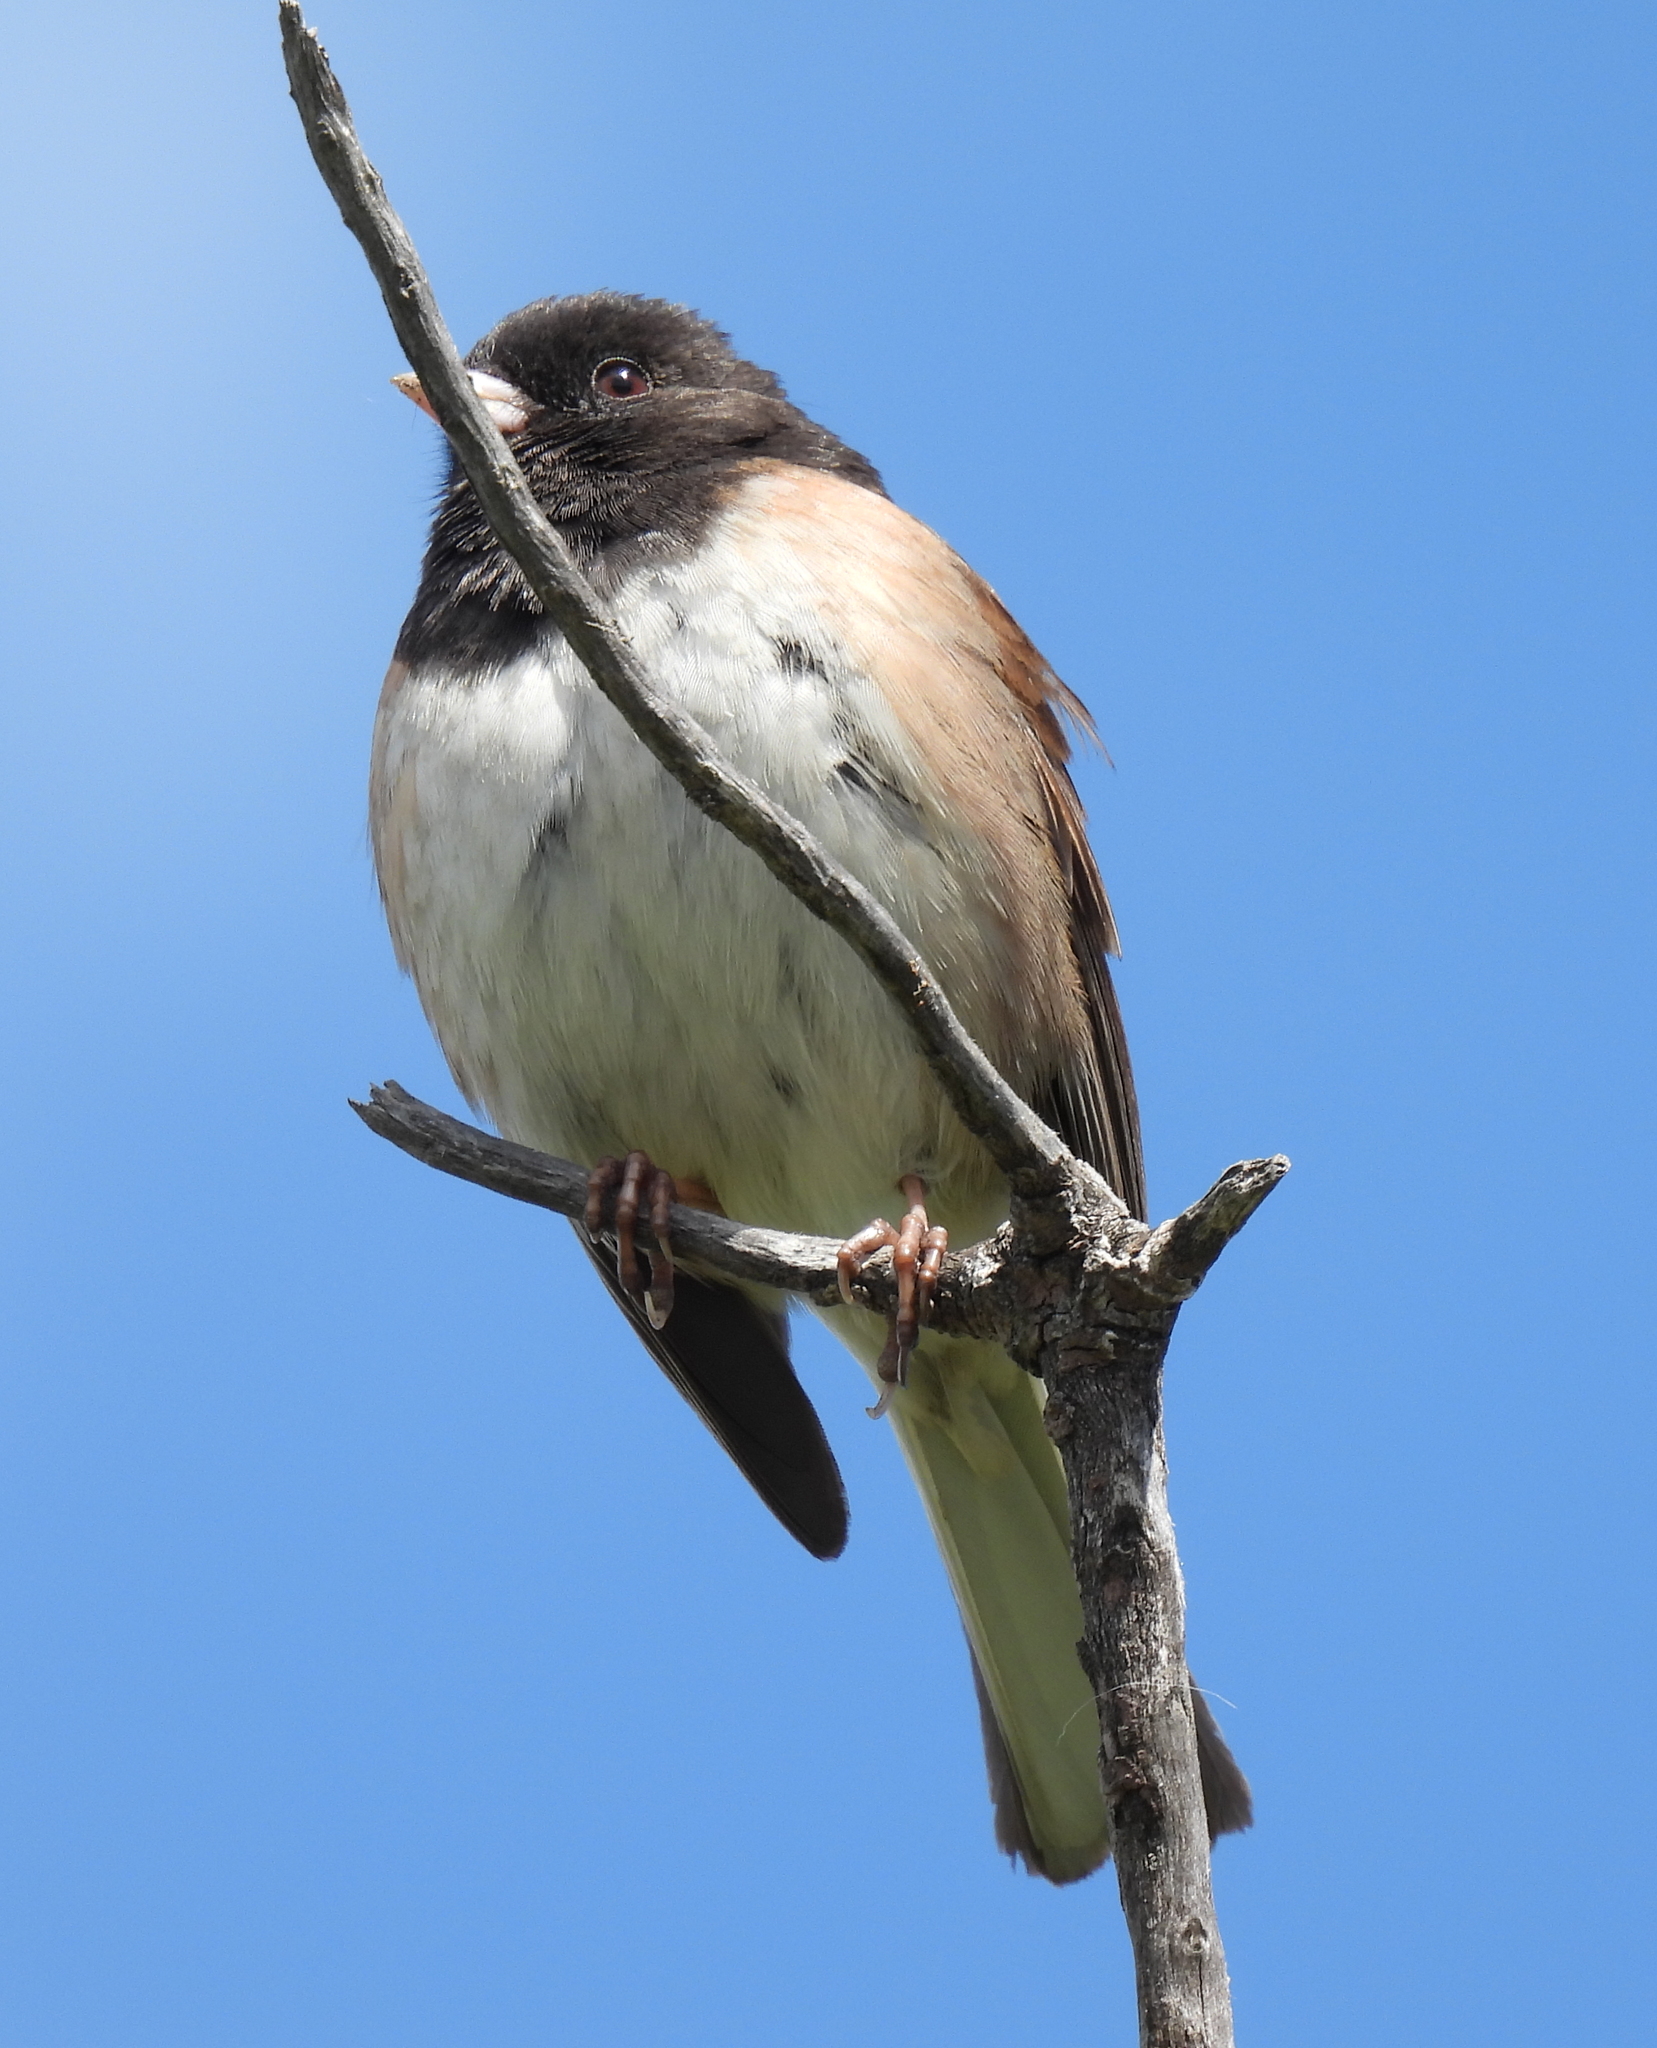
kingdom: Animalia
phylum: Chordata
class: Aves
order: Passeriformes
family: Passerellidae
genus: Junco
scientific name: Junco hyemalis
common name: Dark-eyed junco
